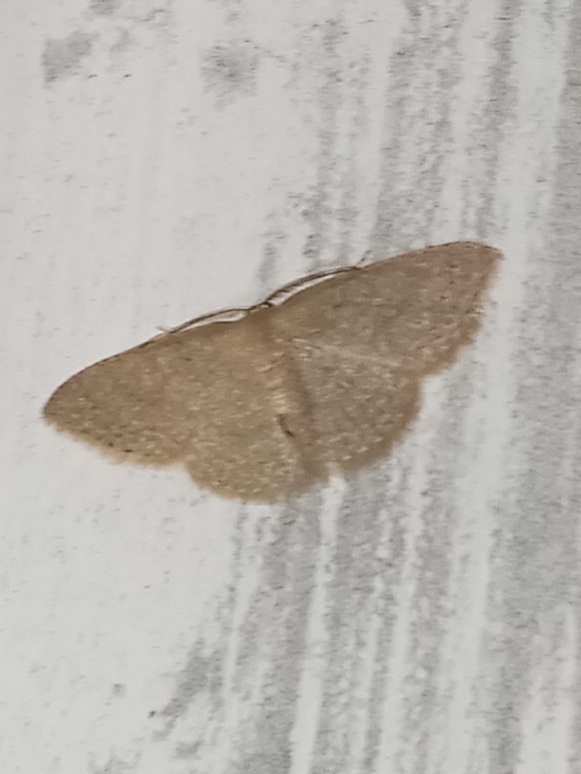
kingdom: Animalia
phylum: Arthropoda
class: Insecta
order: Lepidoptera
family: Geometridae
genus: Pleuroprucha
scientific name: Pleuroprucha insulsaria
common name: Common tan wave
